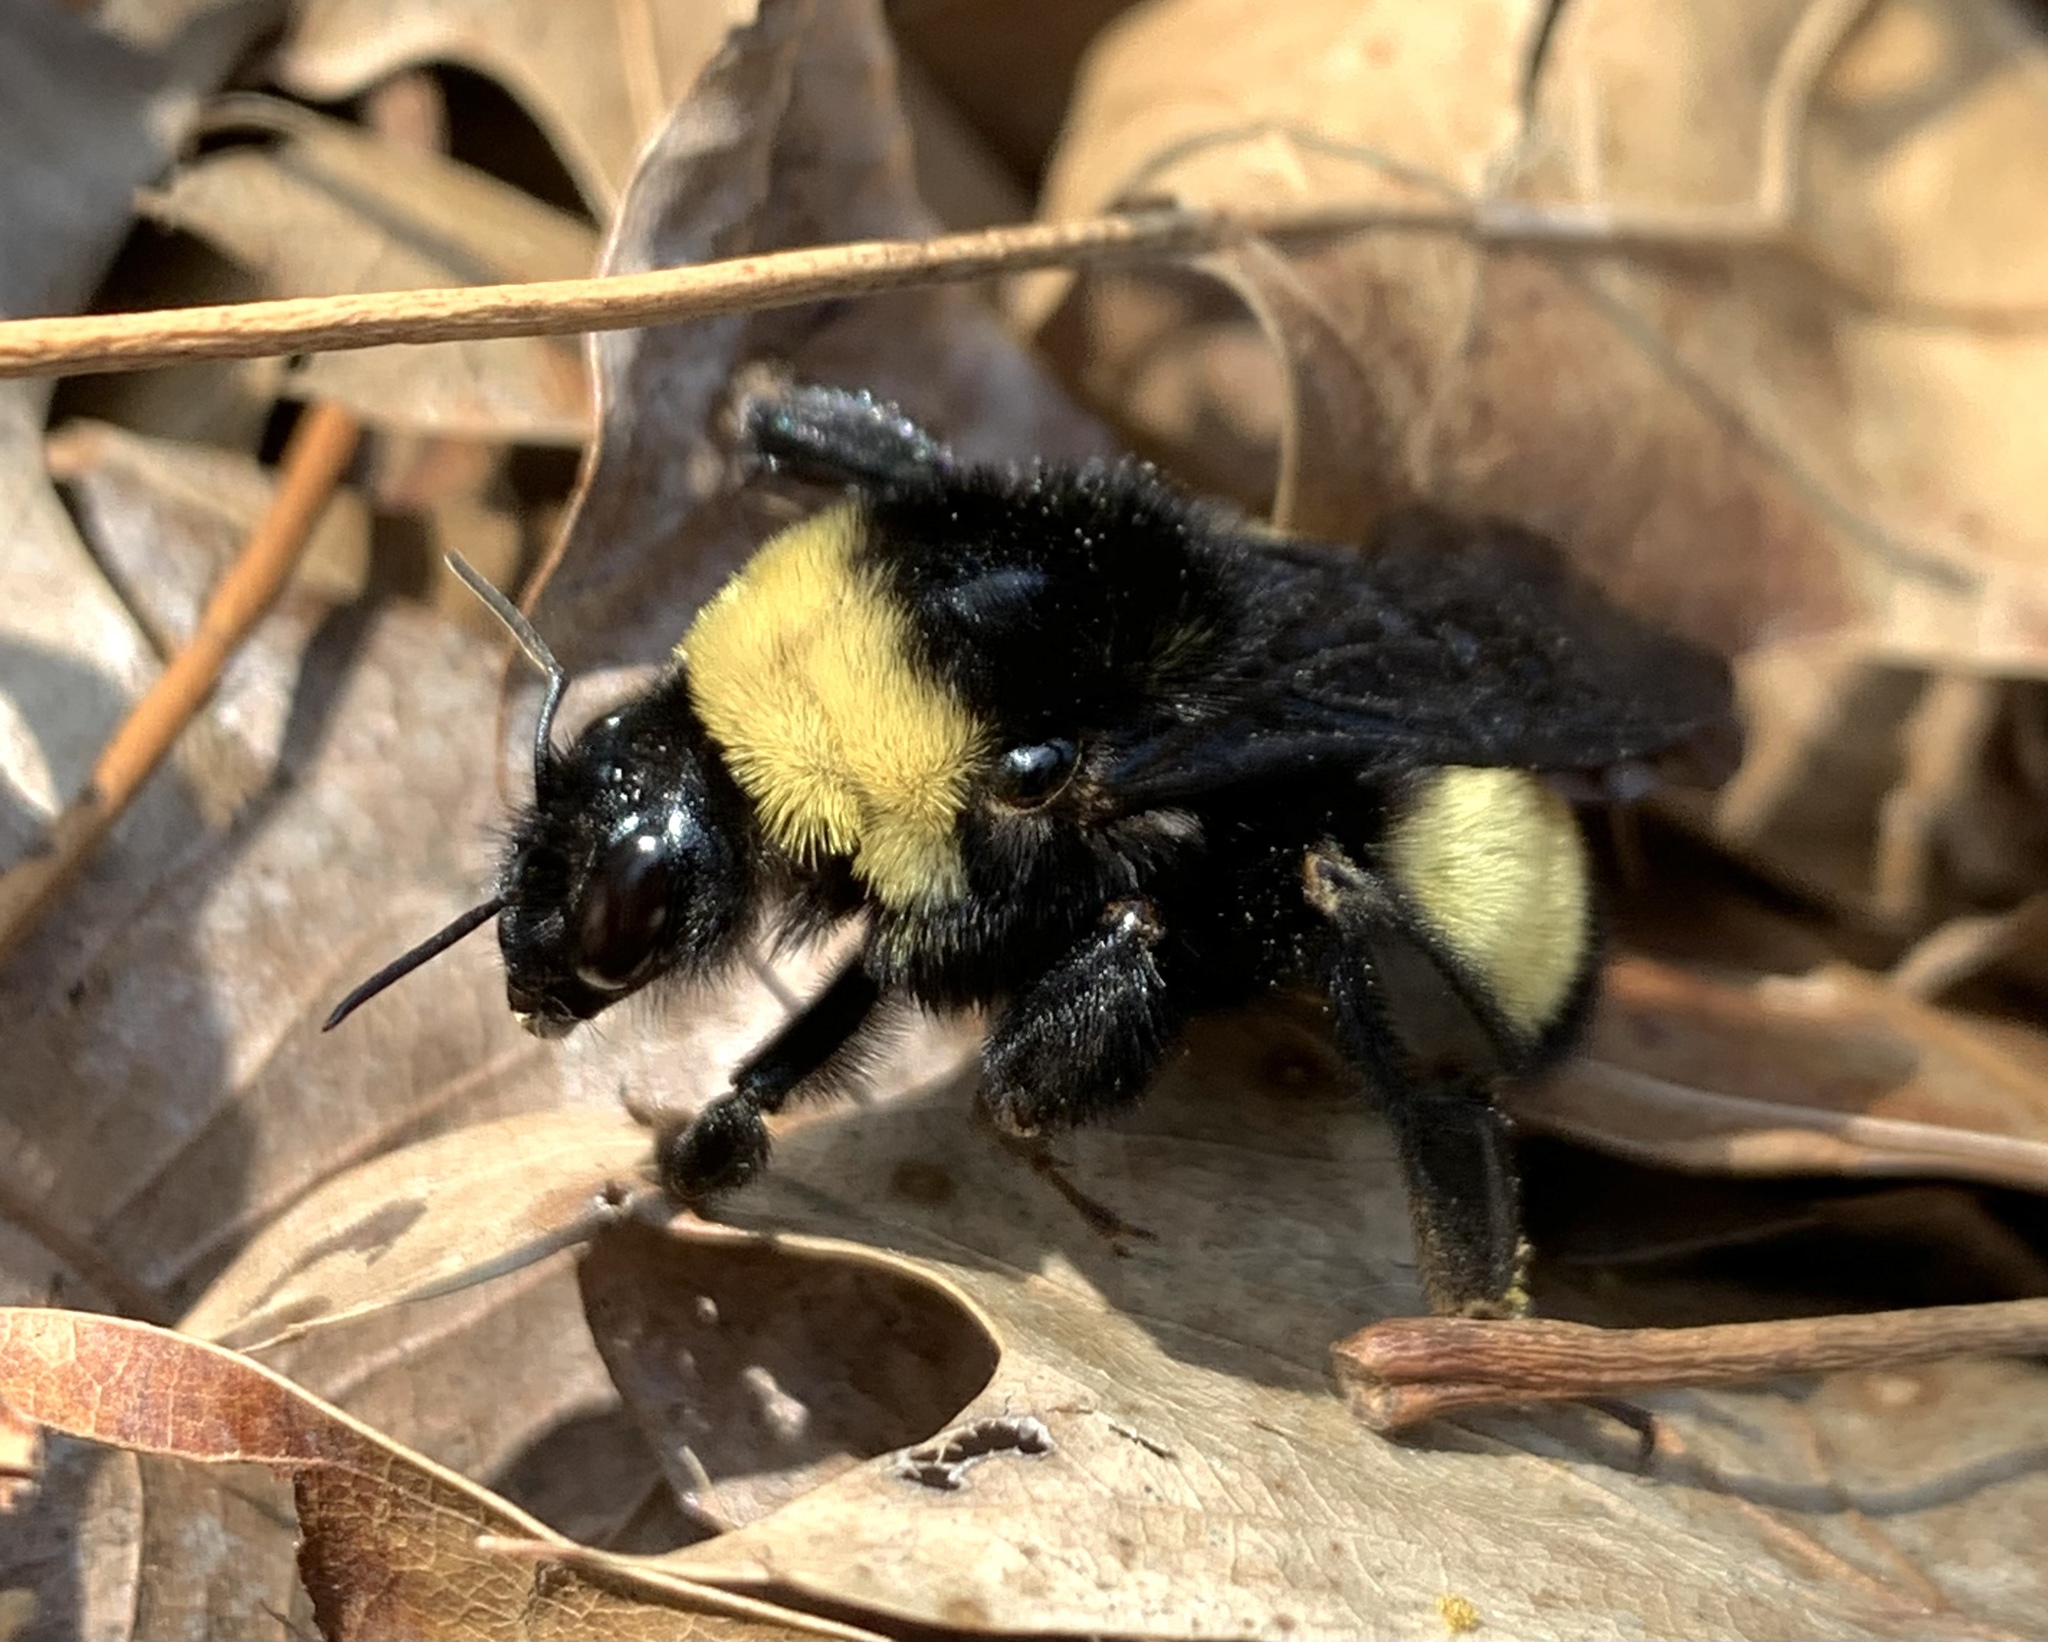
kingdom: Animalia
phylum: Arthropoda
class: Insecta
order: Hymenoptera
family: Apidae
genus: Bombus
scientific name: Bombus pensylvanicus
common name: Bumble bee
